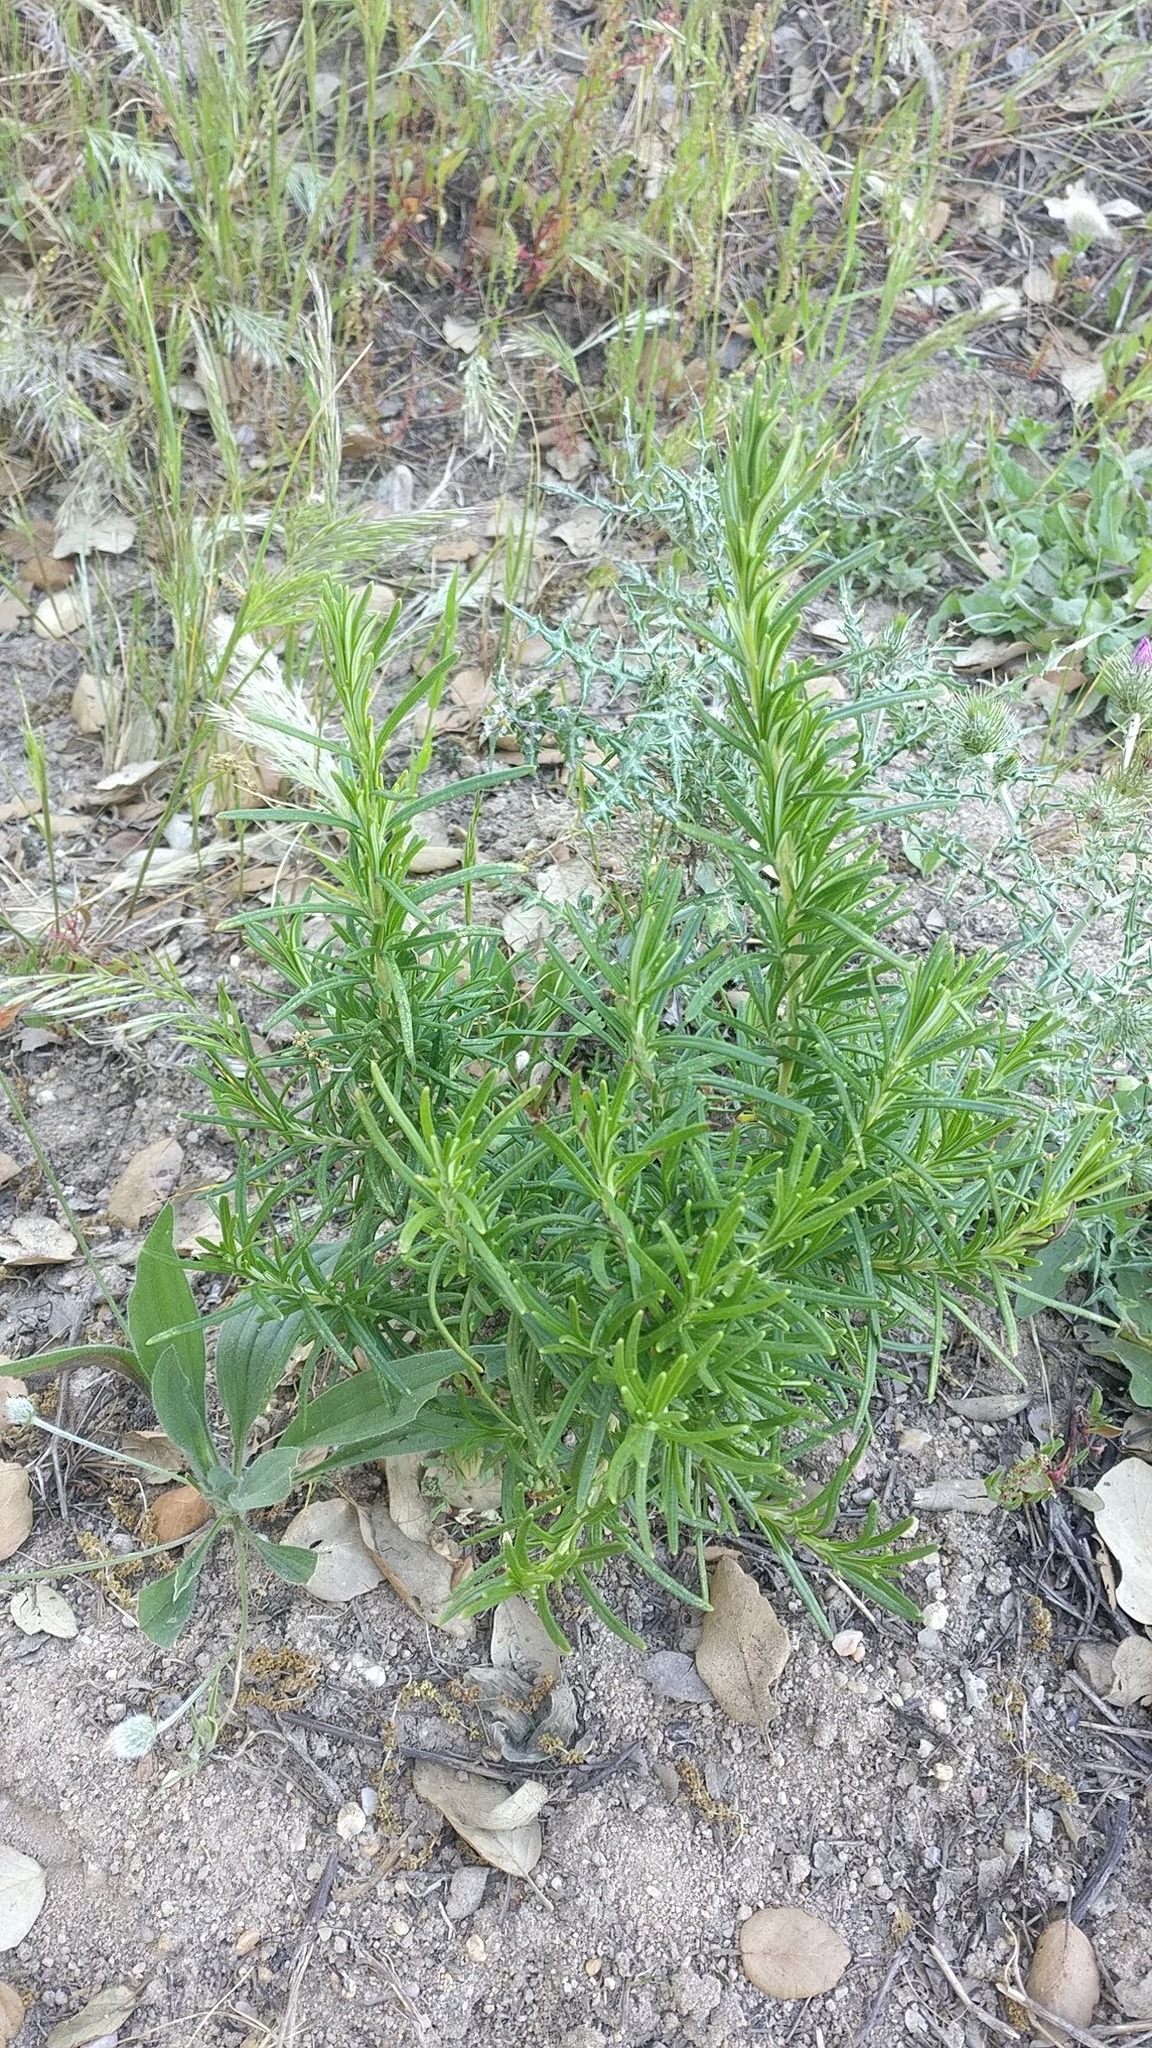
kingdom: Plantae
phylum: Tracheophyta
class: Magnoliopsida
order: Lamiales
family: Lamiaceae
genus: Salvia
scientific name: Salvia rosmarinus
